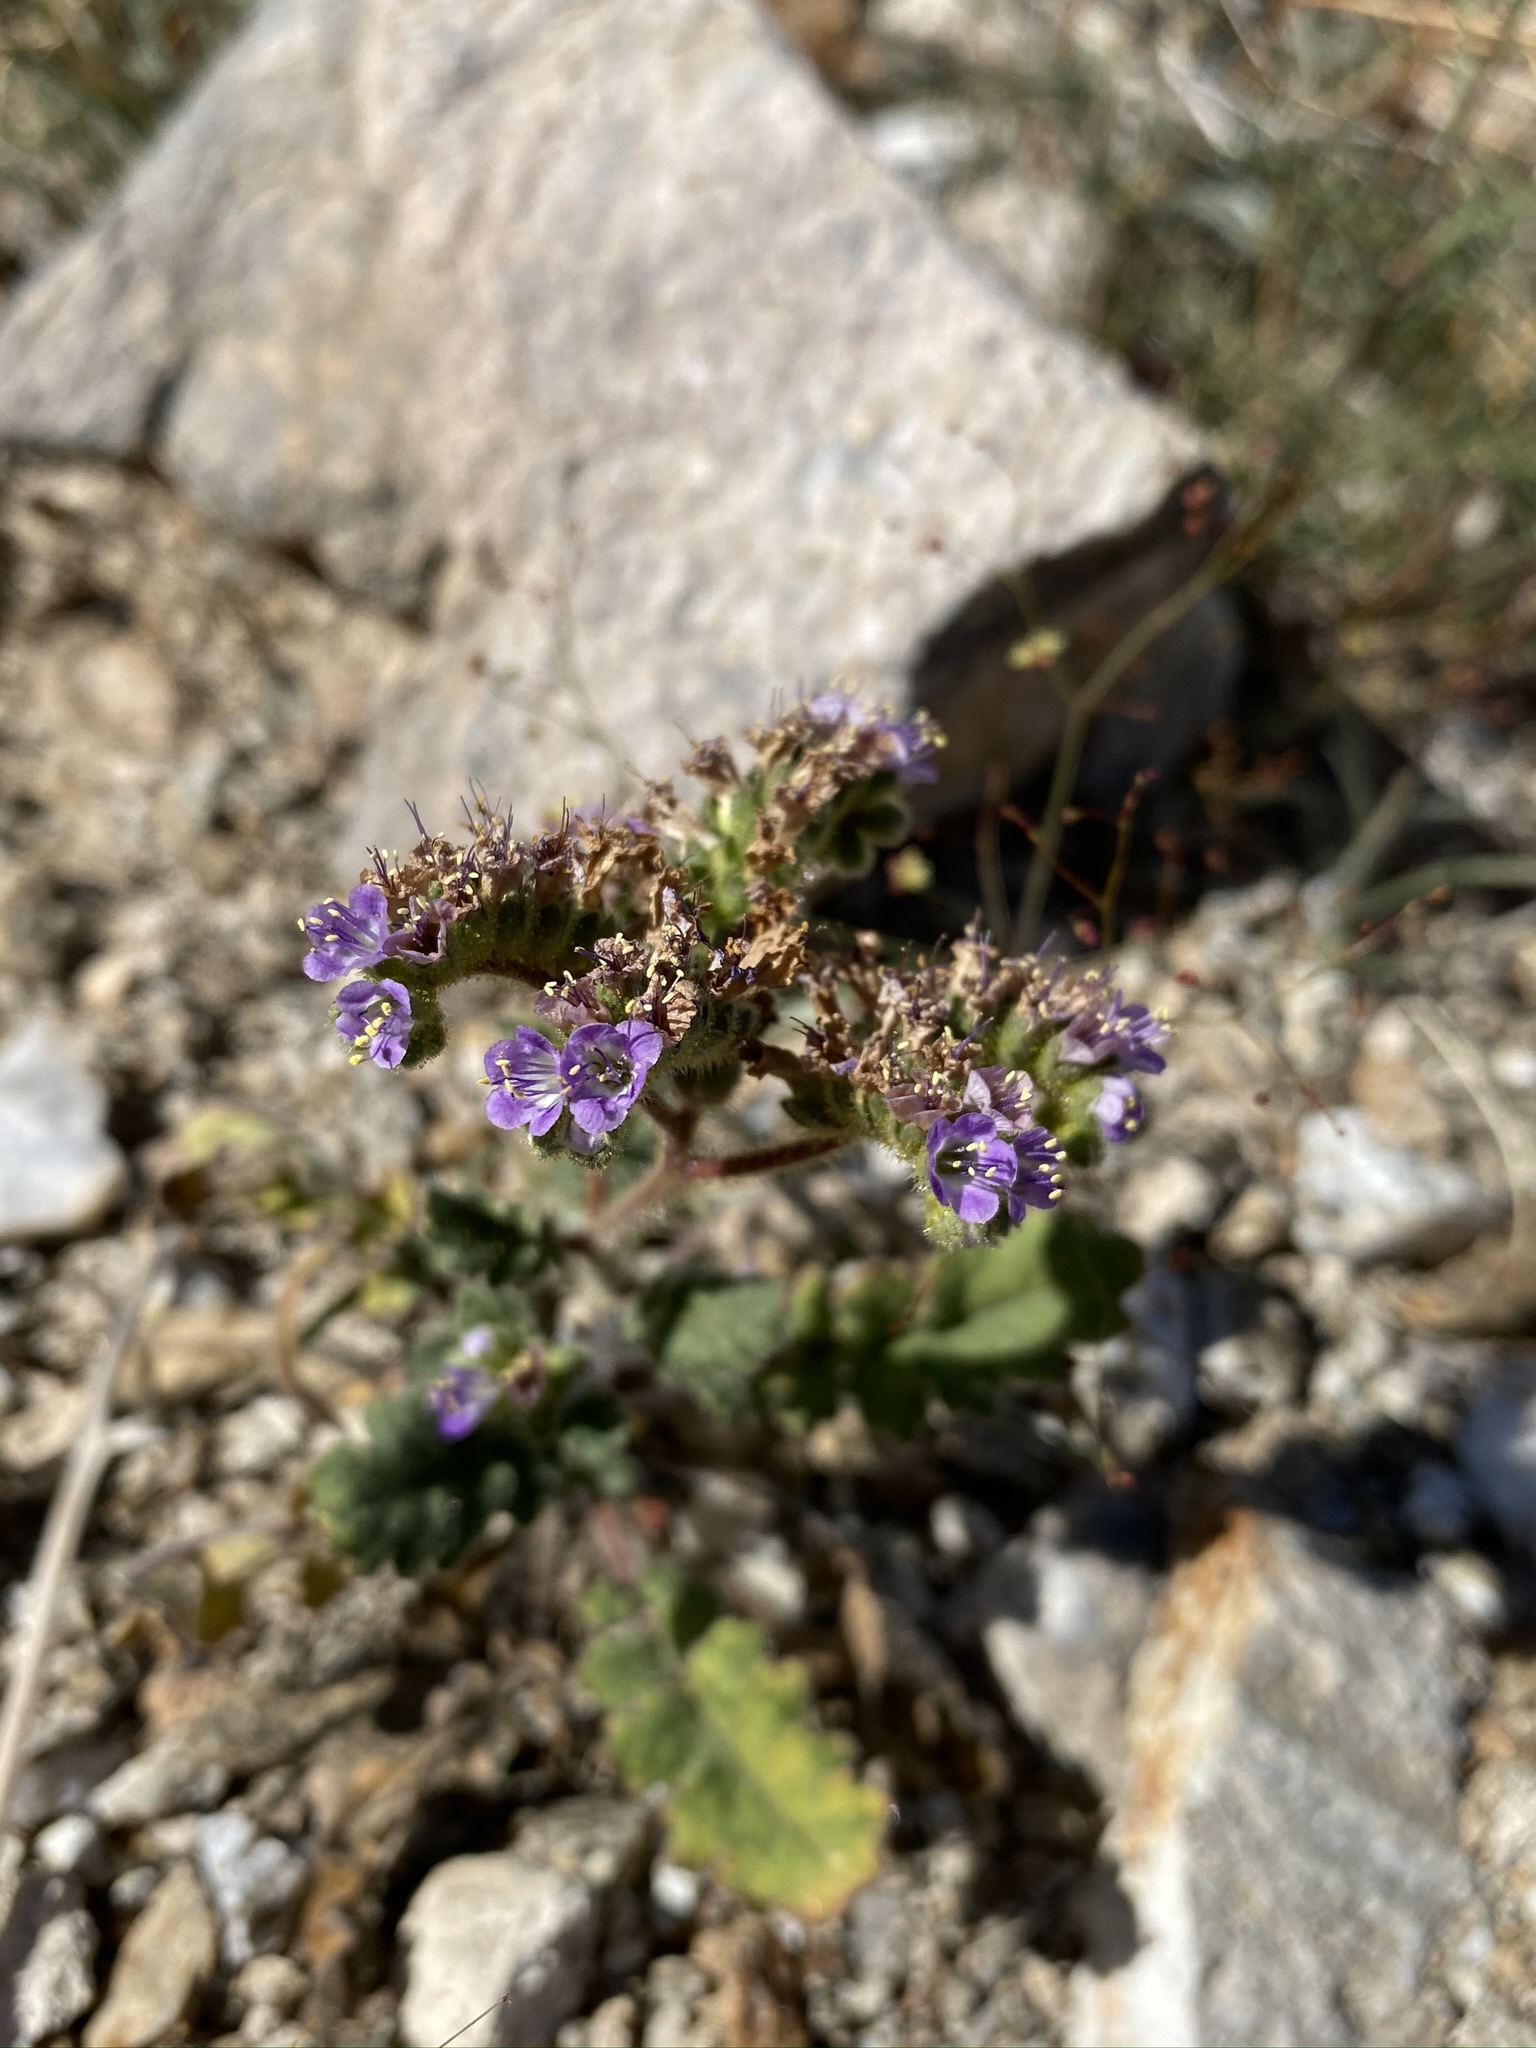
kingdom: Plantae
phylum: Tracheophyta
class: Magnoliopsida
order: Boraginales
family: Hydrophyllaceae
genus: Phacelia
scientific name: Phacelia minutiflora
